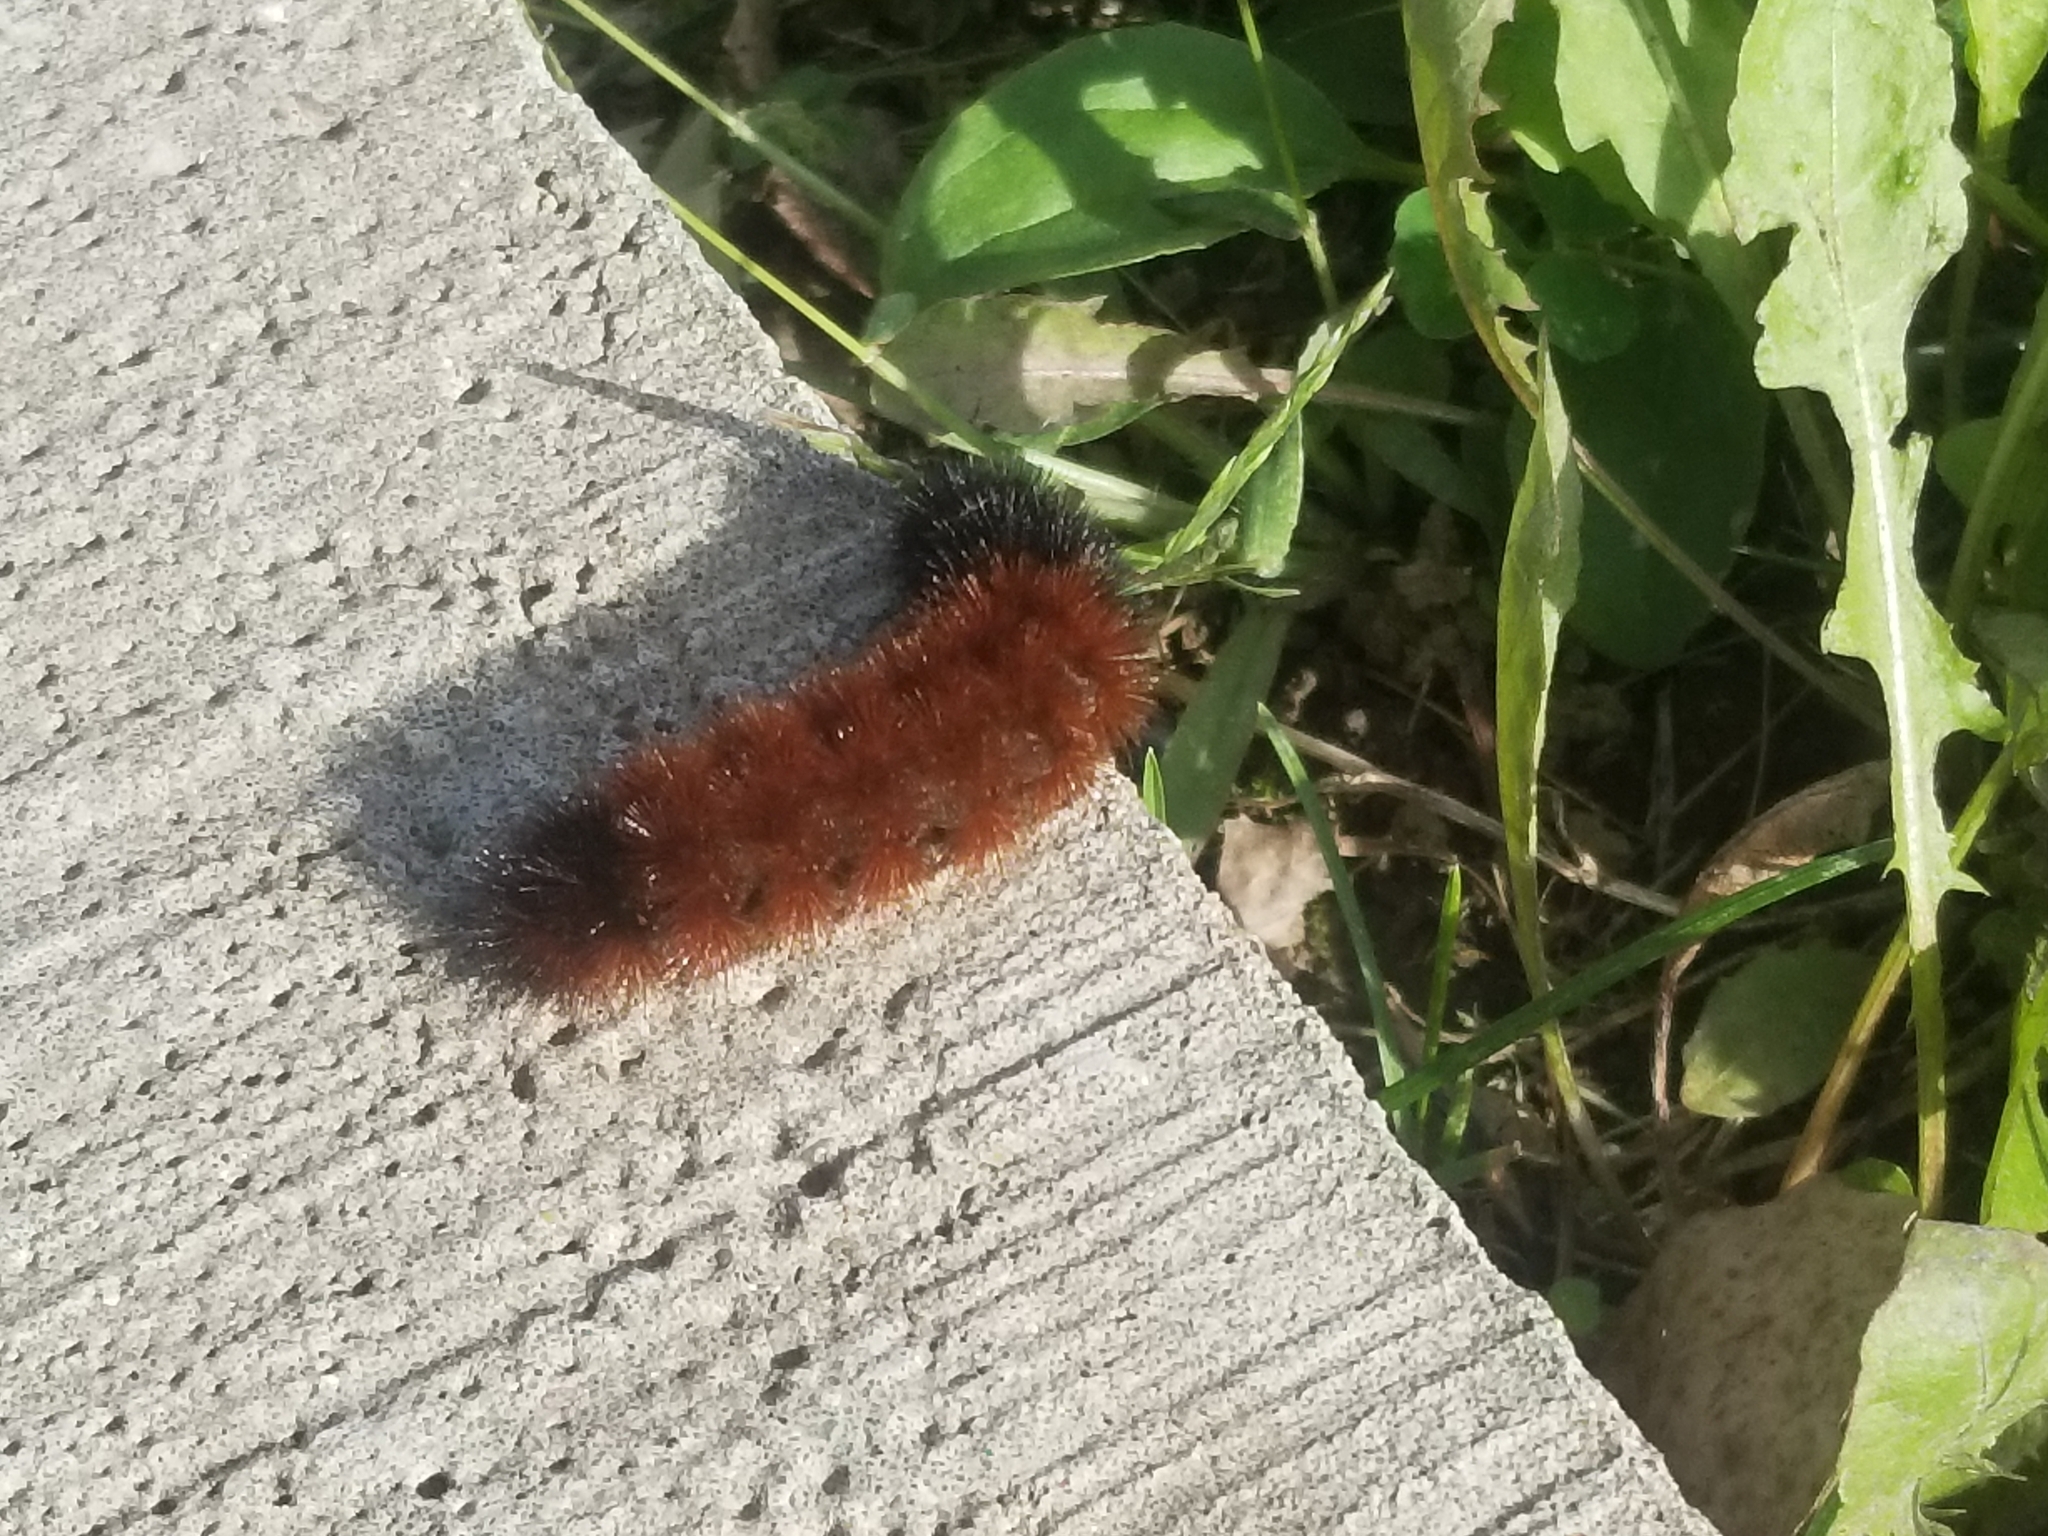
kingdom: Animalia
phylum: Arthropoda
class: Insecta
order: Lepidoptera
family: Erebidae
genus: Pyrrharctia
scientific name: Pyrrharctia isabella
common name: Isabella tiger moth
